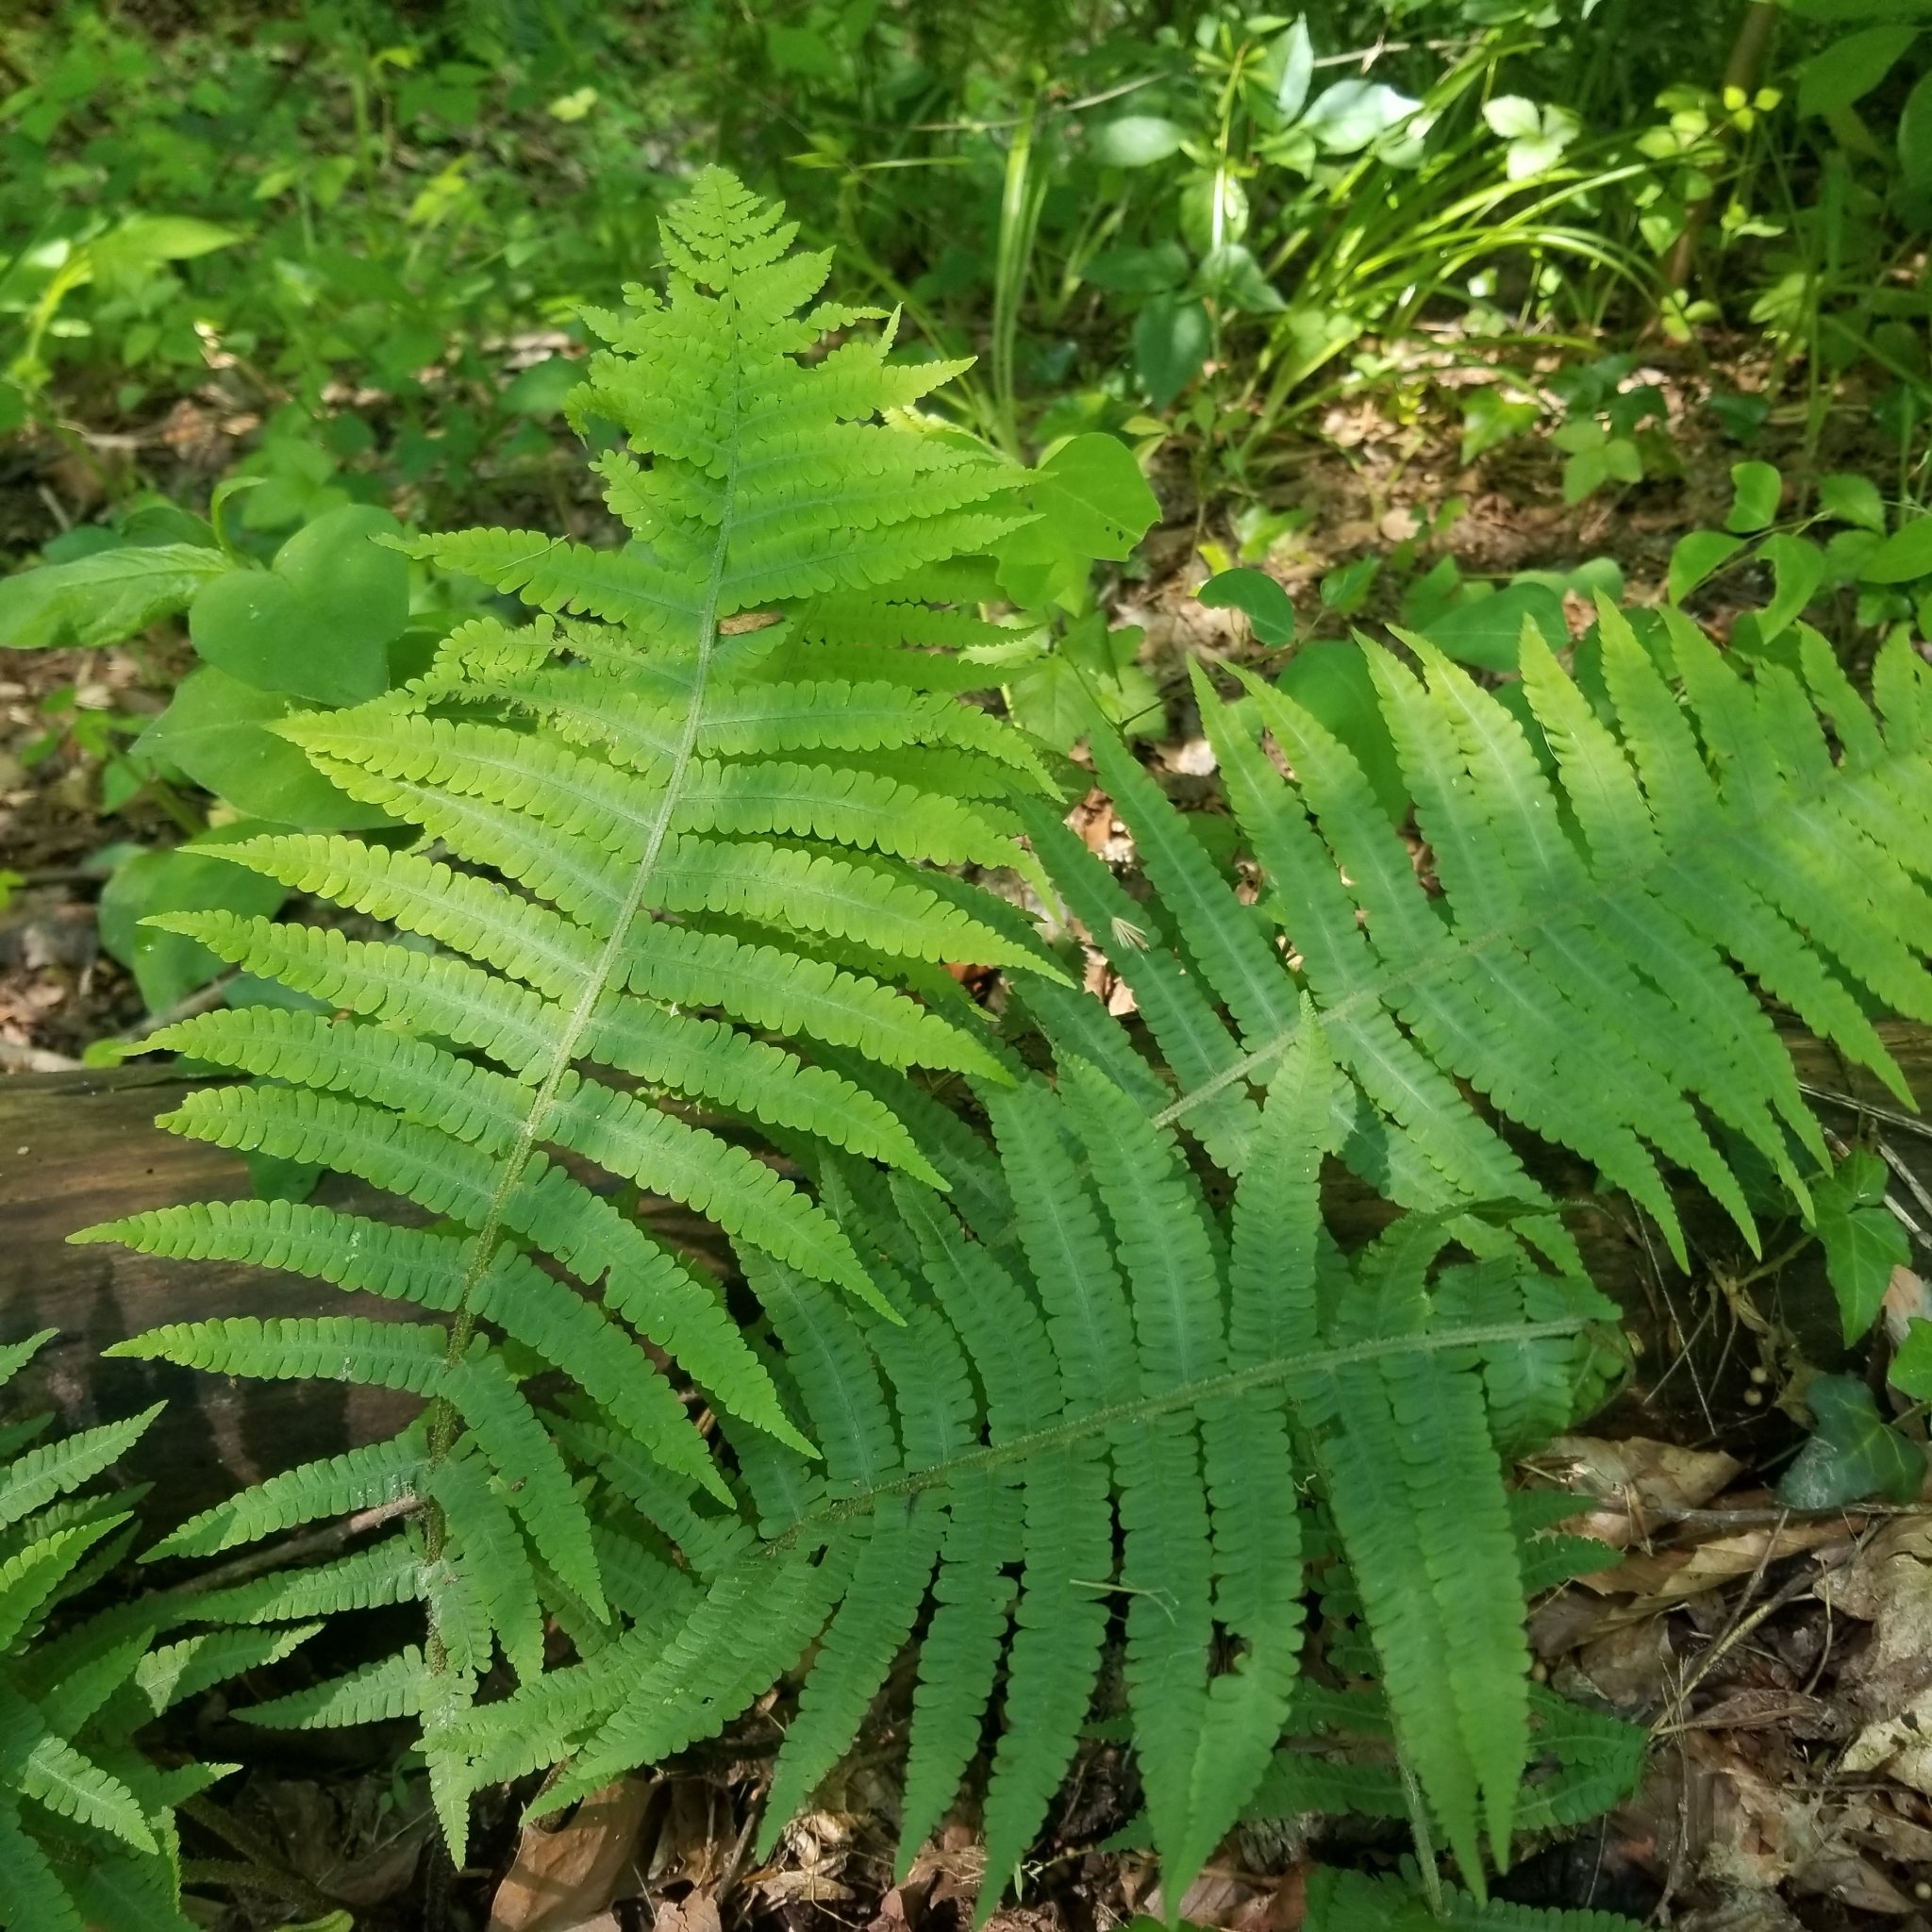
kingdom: Plantae
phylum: Tracheophyta
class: Polypodiopsida
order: Polypodiales
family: Athyriaceae
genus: Deparia
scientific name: Deparia acrostichoides
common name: Silver false spleenwort
